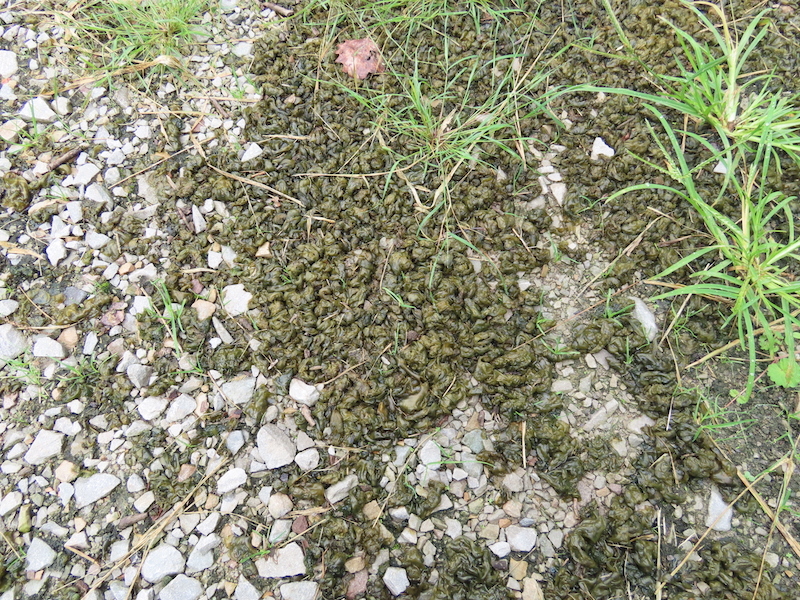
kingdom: Bacteria
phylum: Cyanobacteria
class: Cyanobacteriia
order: Cyanobacteriales
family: Nostocaceae
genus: Nostoc
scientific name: Nostoc commune
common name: Star jelly
